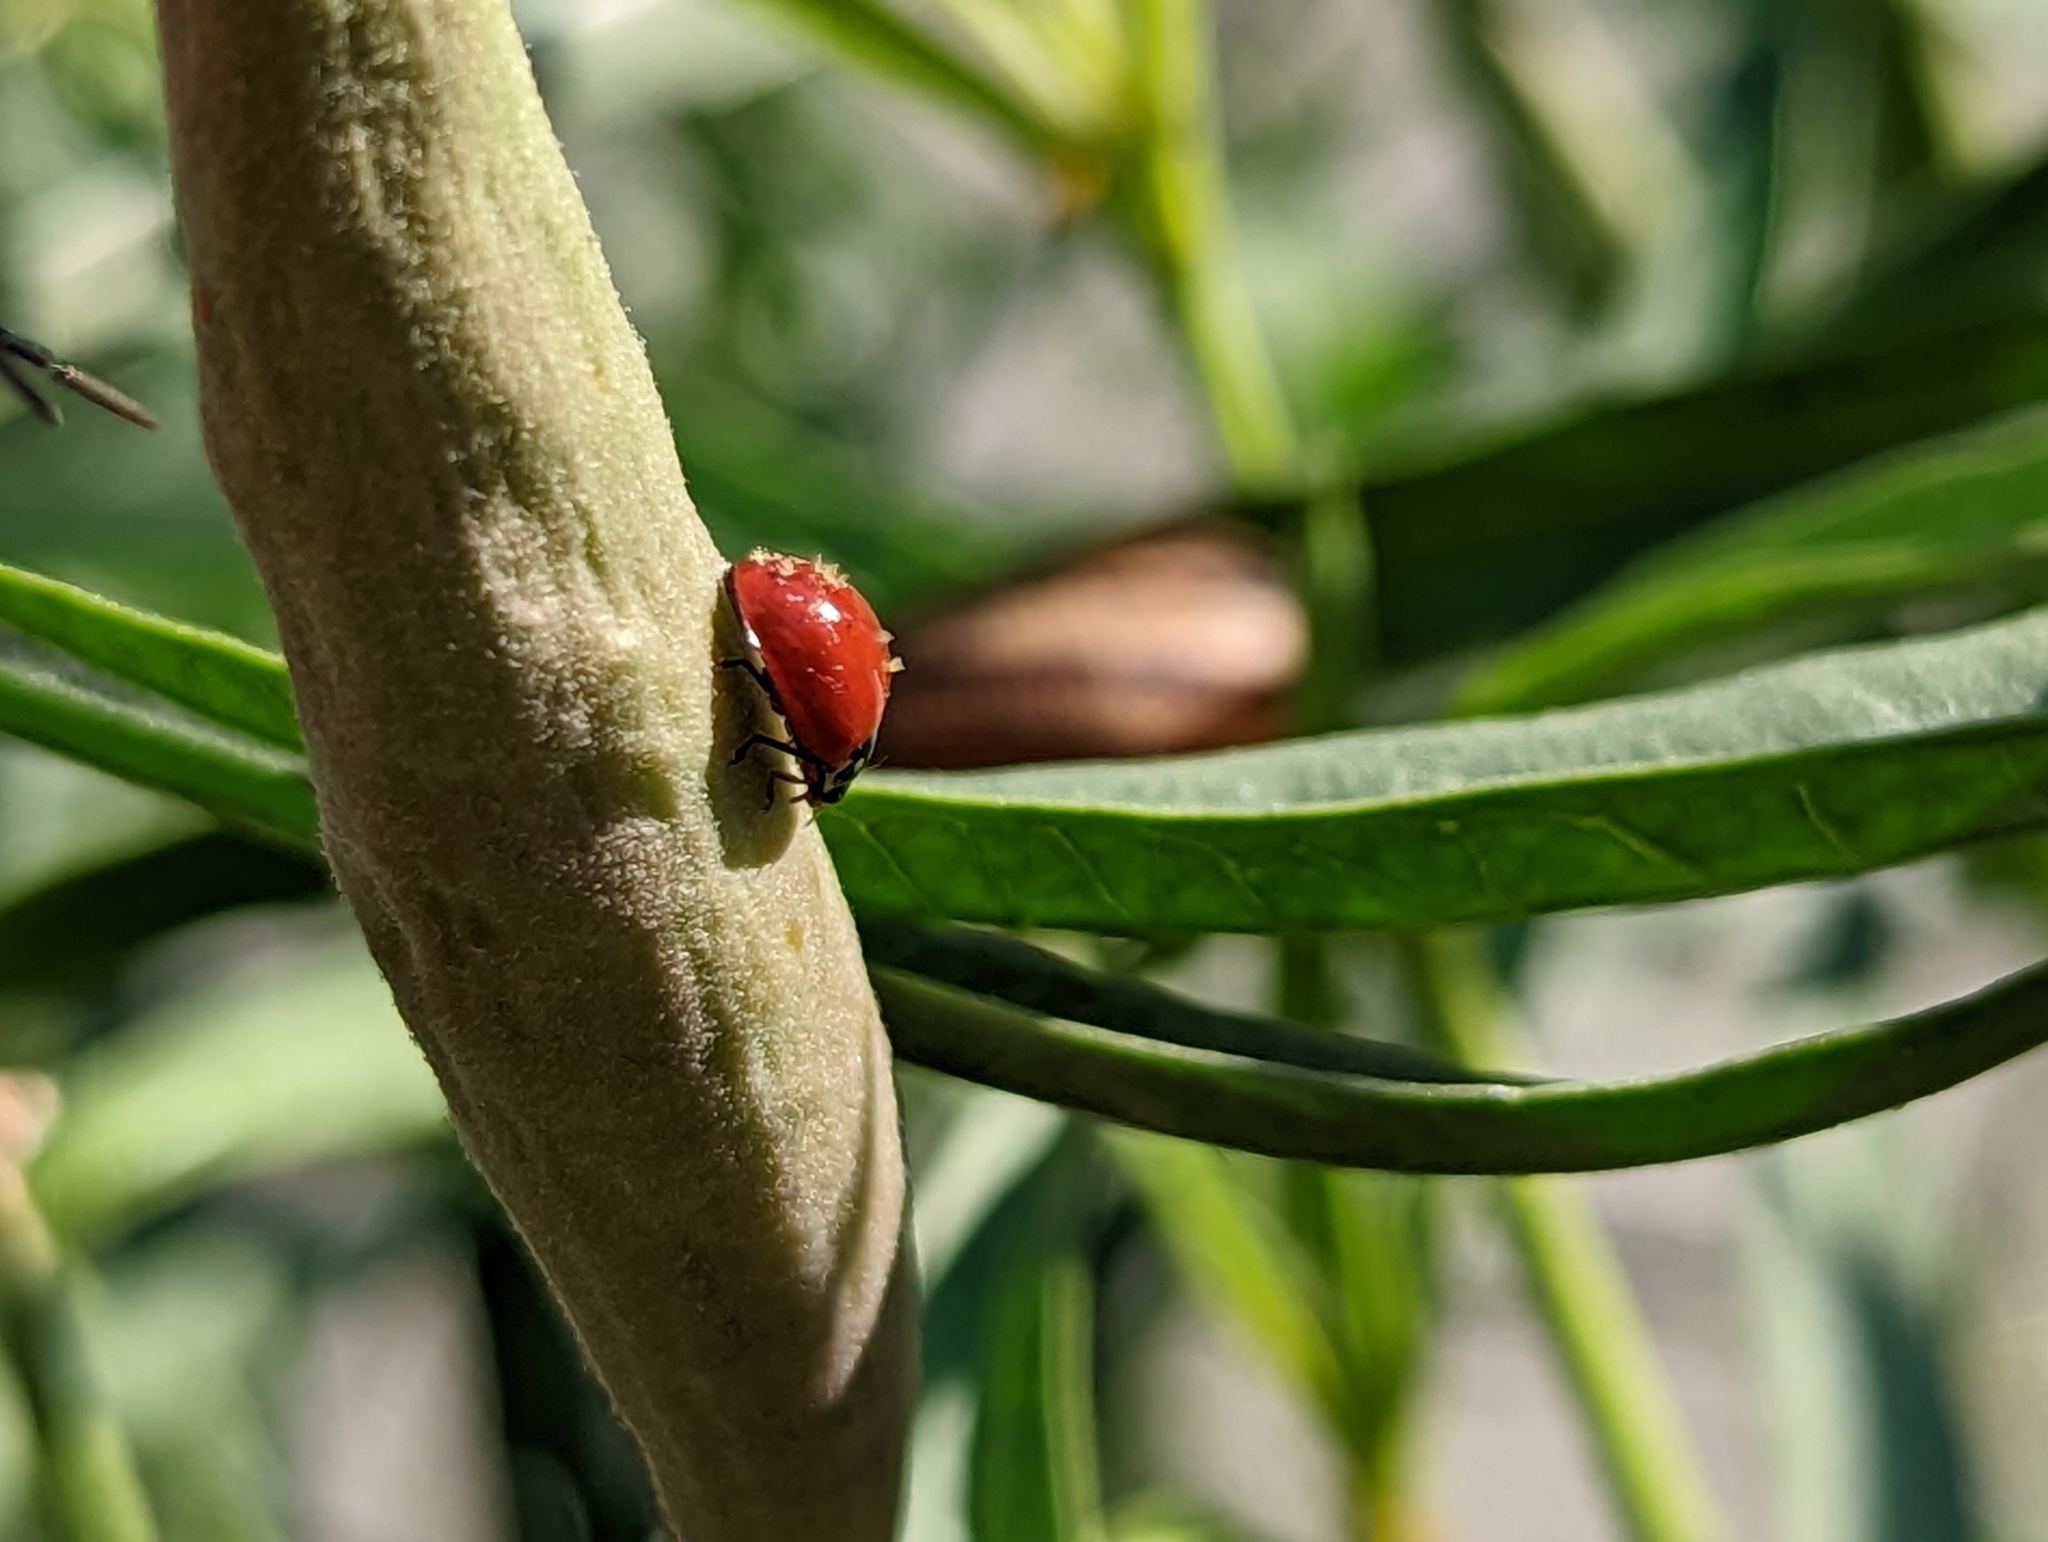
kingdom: Animalia
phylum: Arthropoda
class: Insecta
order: Coleoptera
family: Coccinellidae
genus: Cycloneda
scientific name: Cycloneda sanguinea
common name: Ladybird beetle
